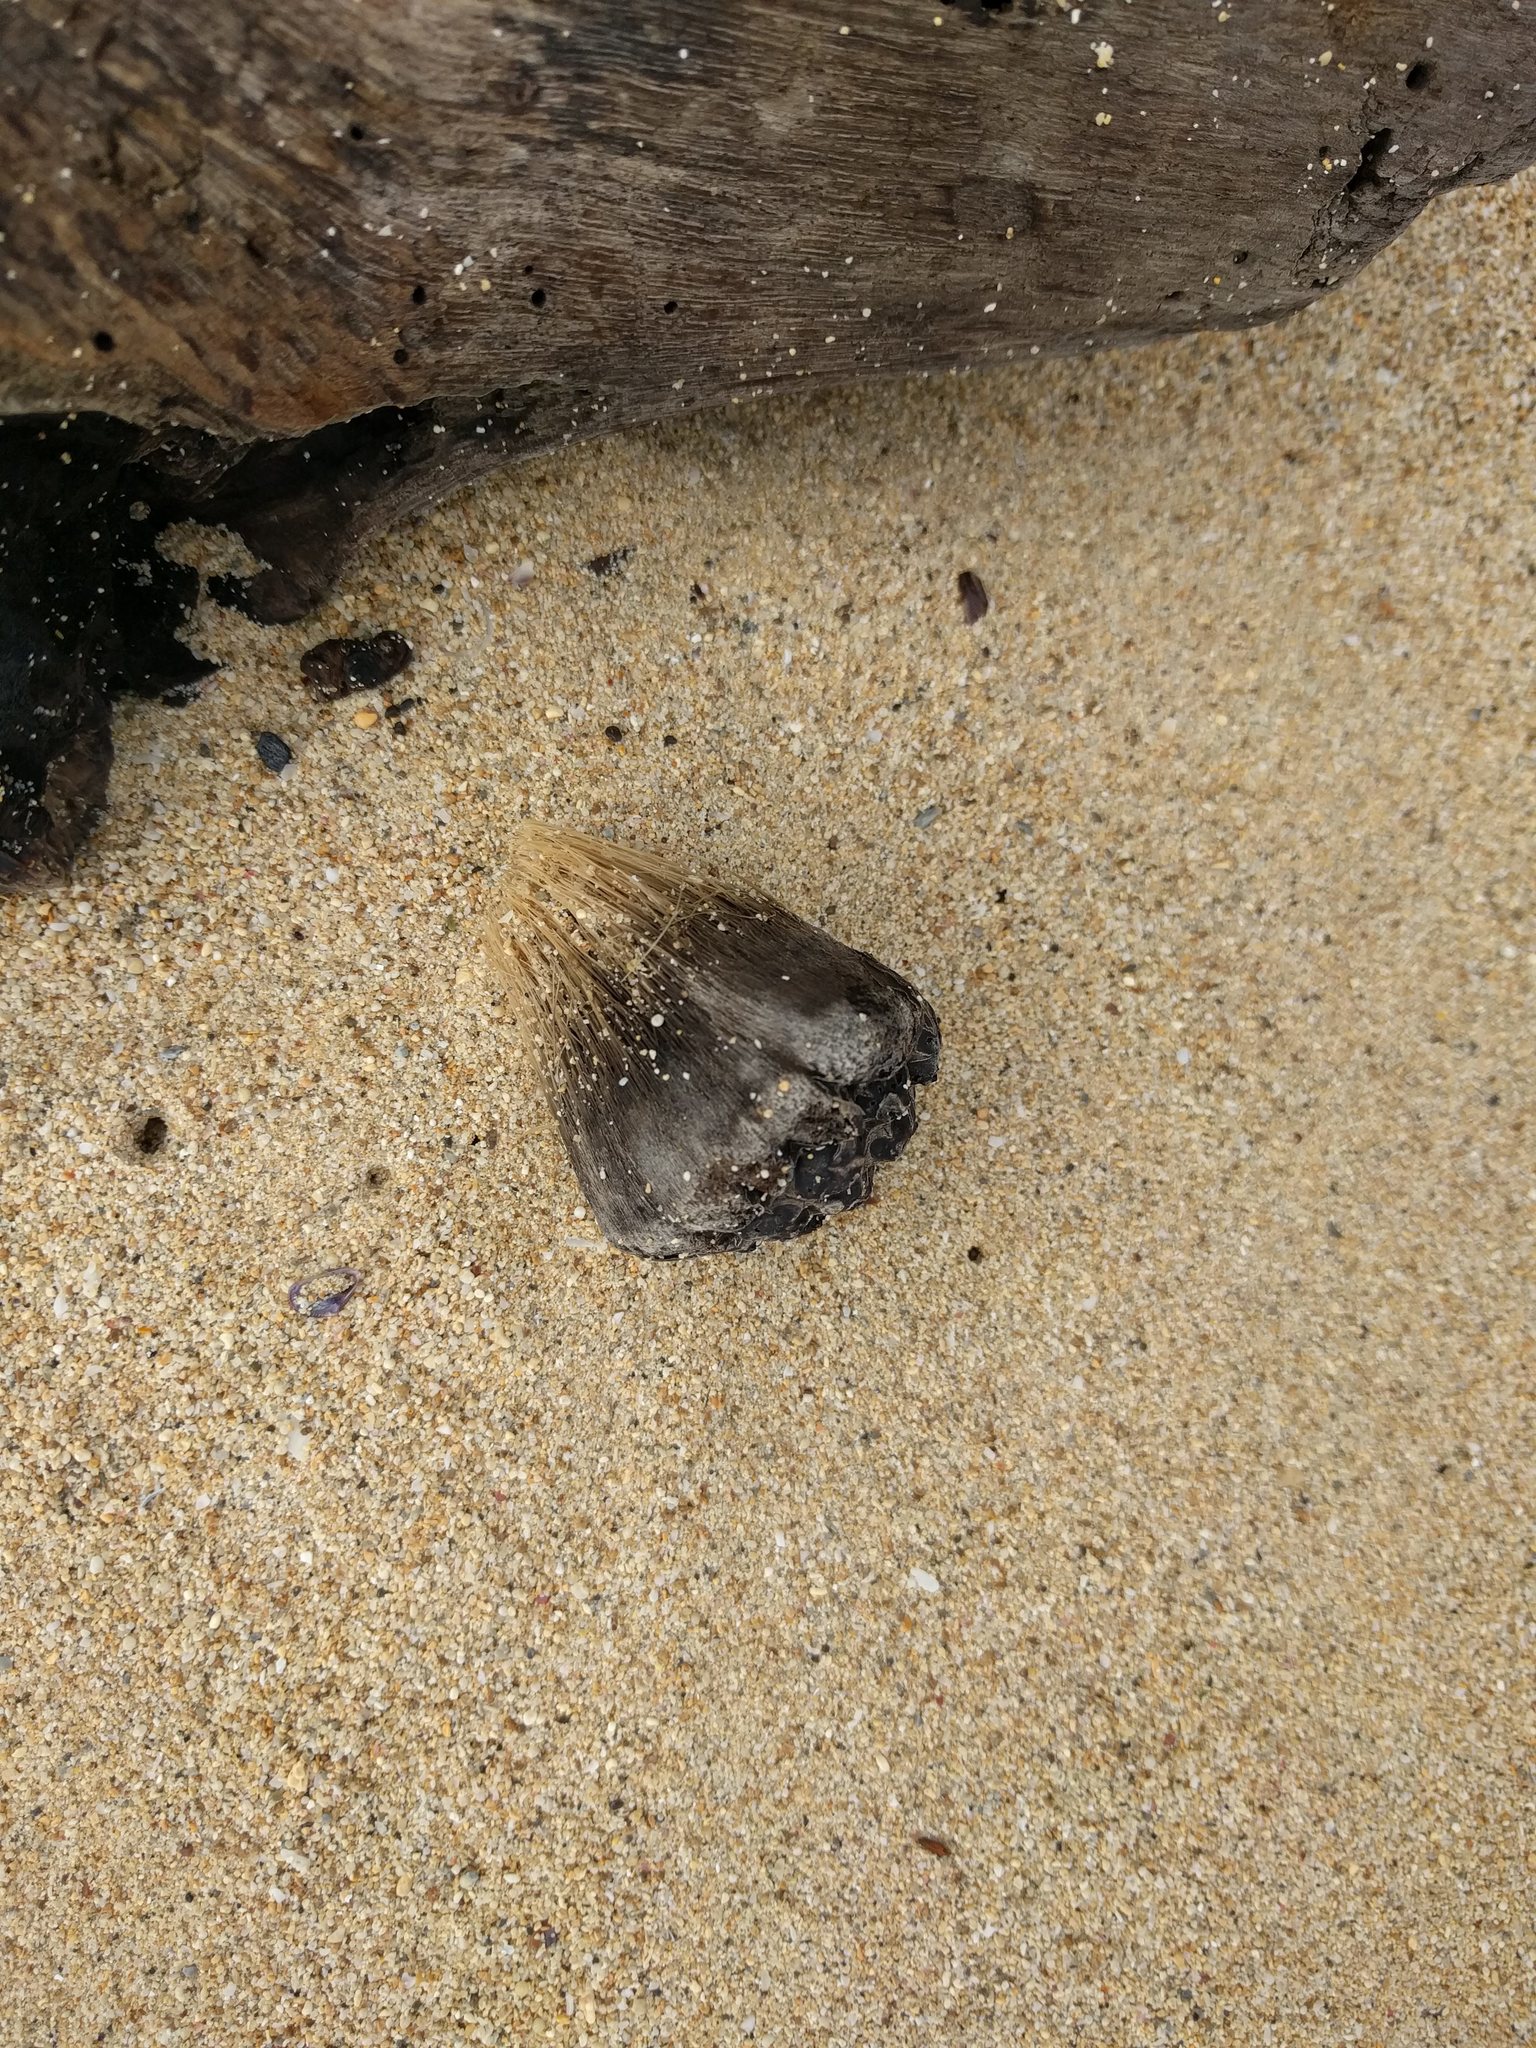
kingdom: Plantae
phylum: Tracheophyta
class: Liliopsida
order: Pandanales
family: Pandanaceae
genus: Pandanus
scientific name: Pandanus tectorius
